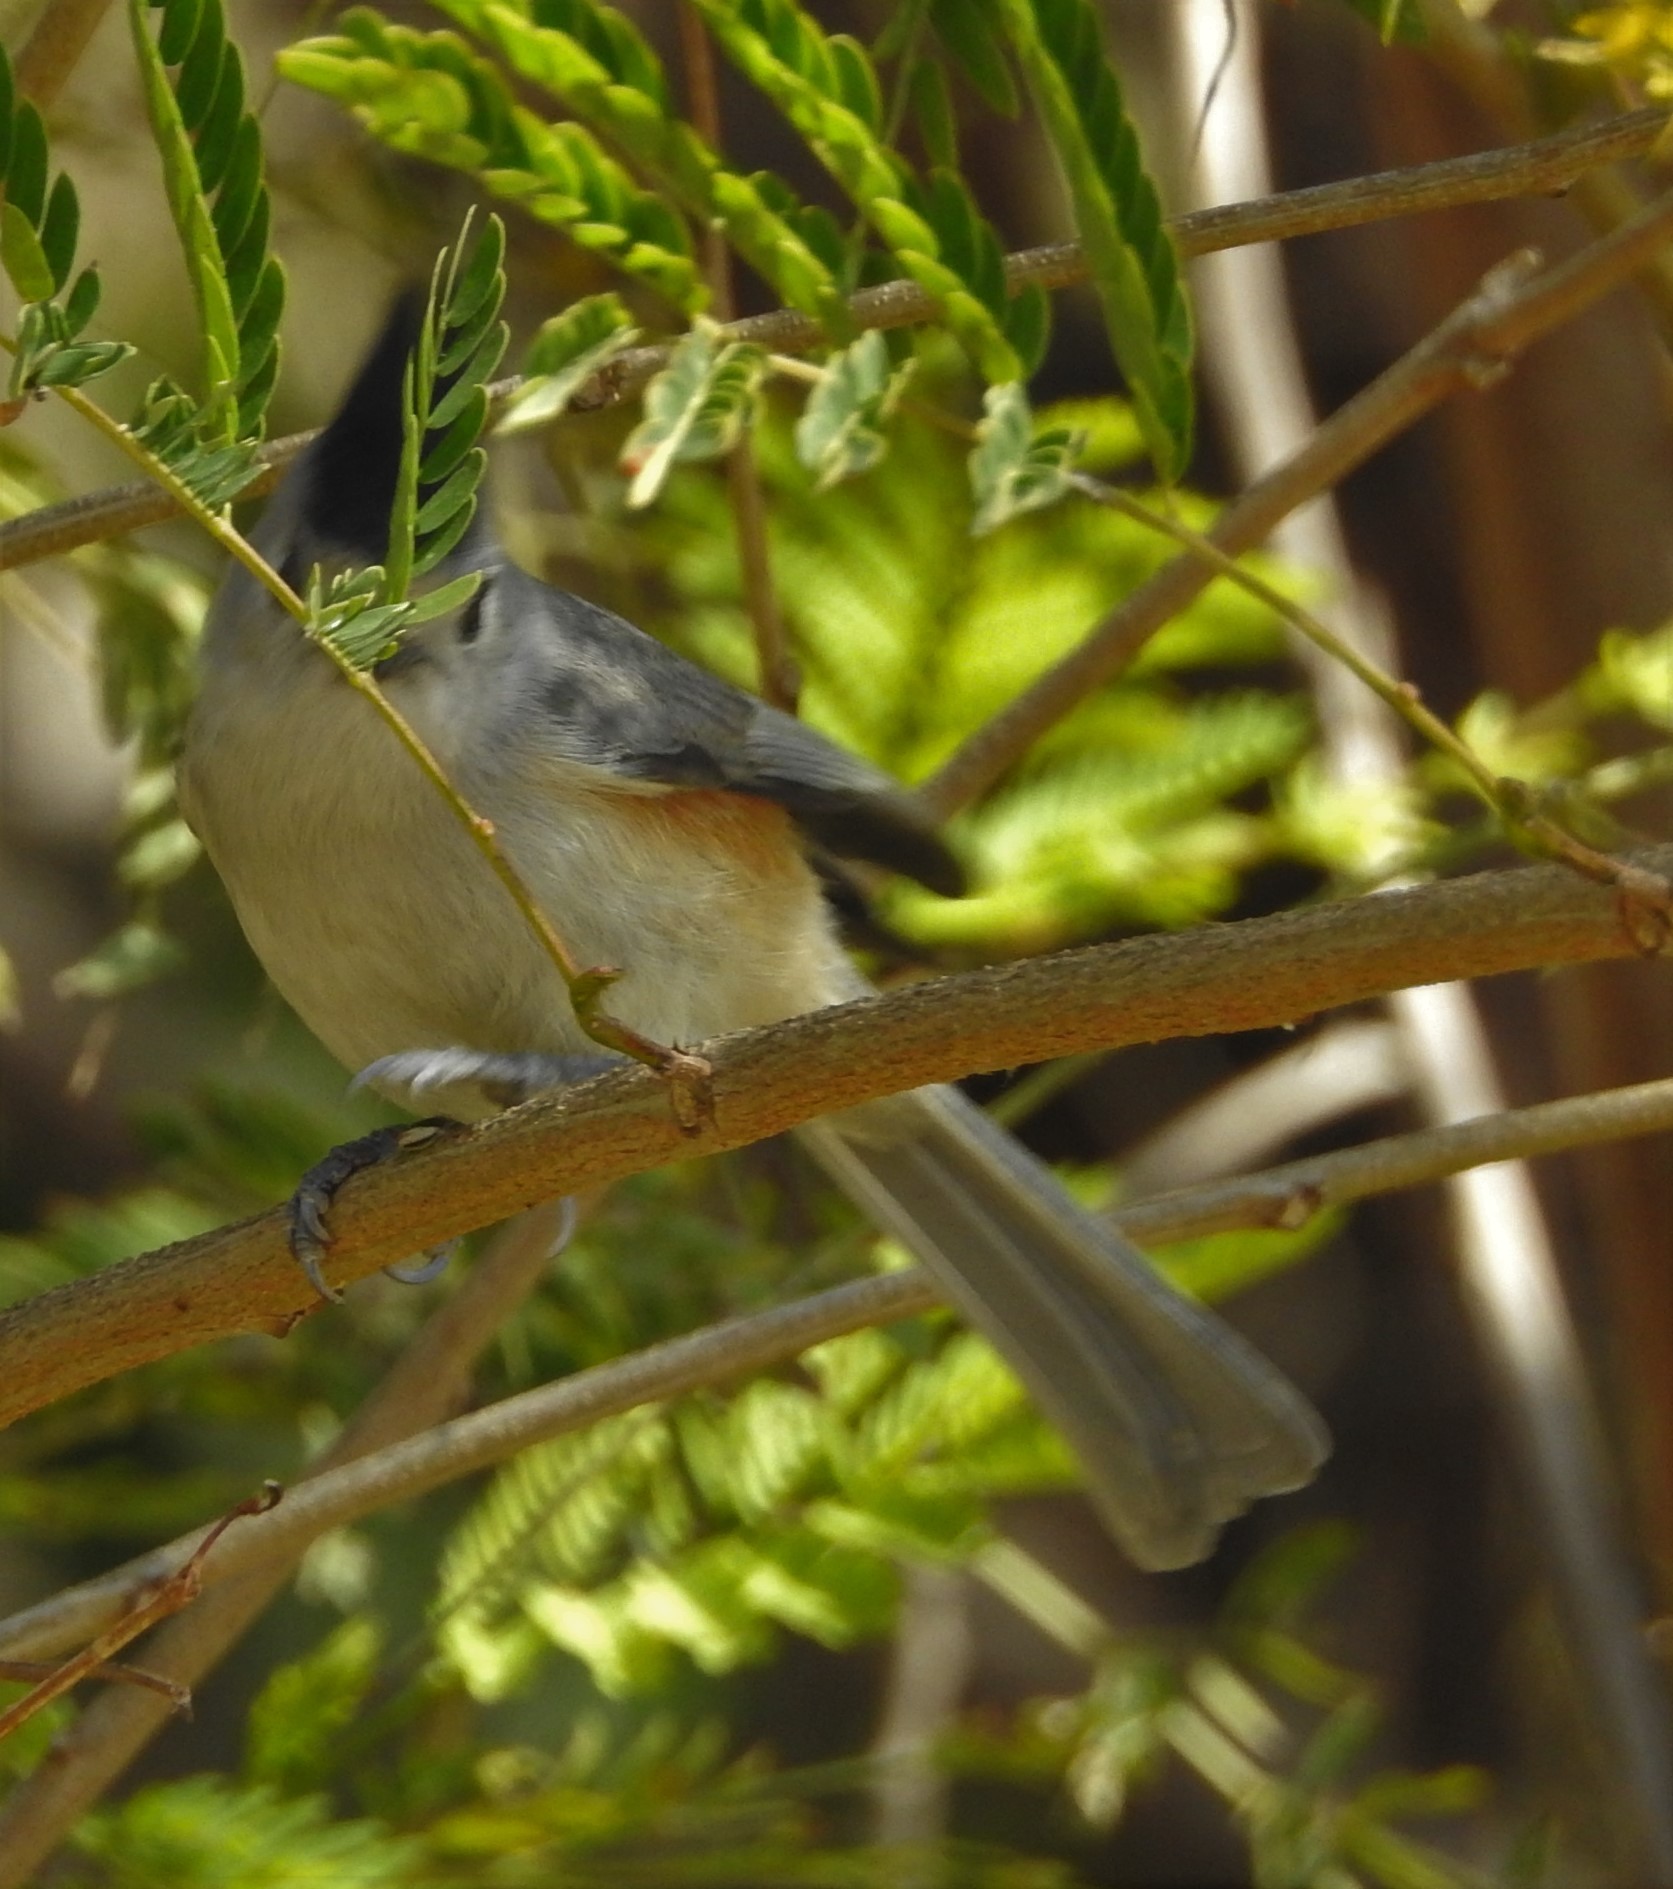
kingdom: Animalia
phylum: Chordata
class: Aves
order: Passeriformes
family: Paridae
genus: Baeolophus
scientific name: Baeolophus atricristatus
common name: Black-crested titmouse
